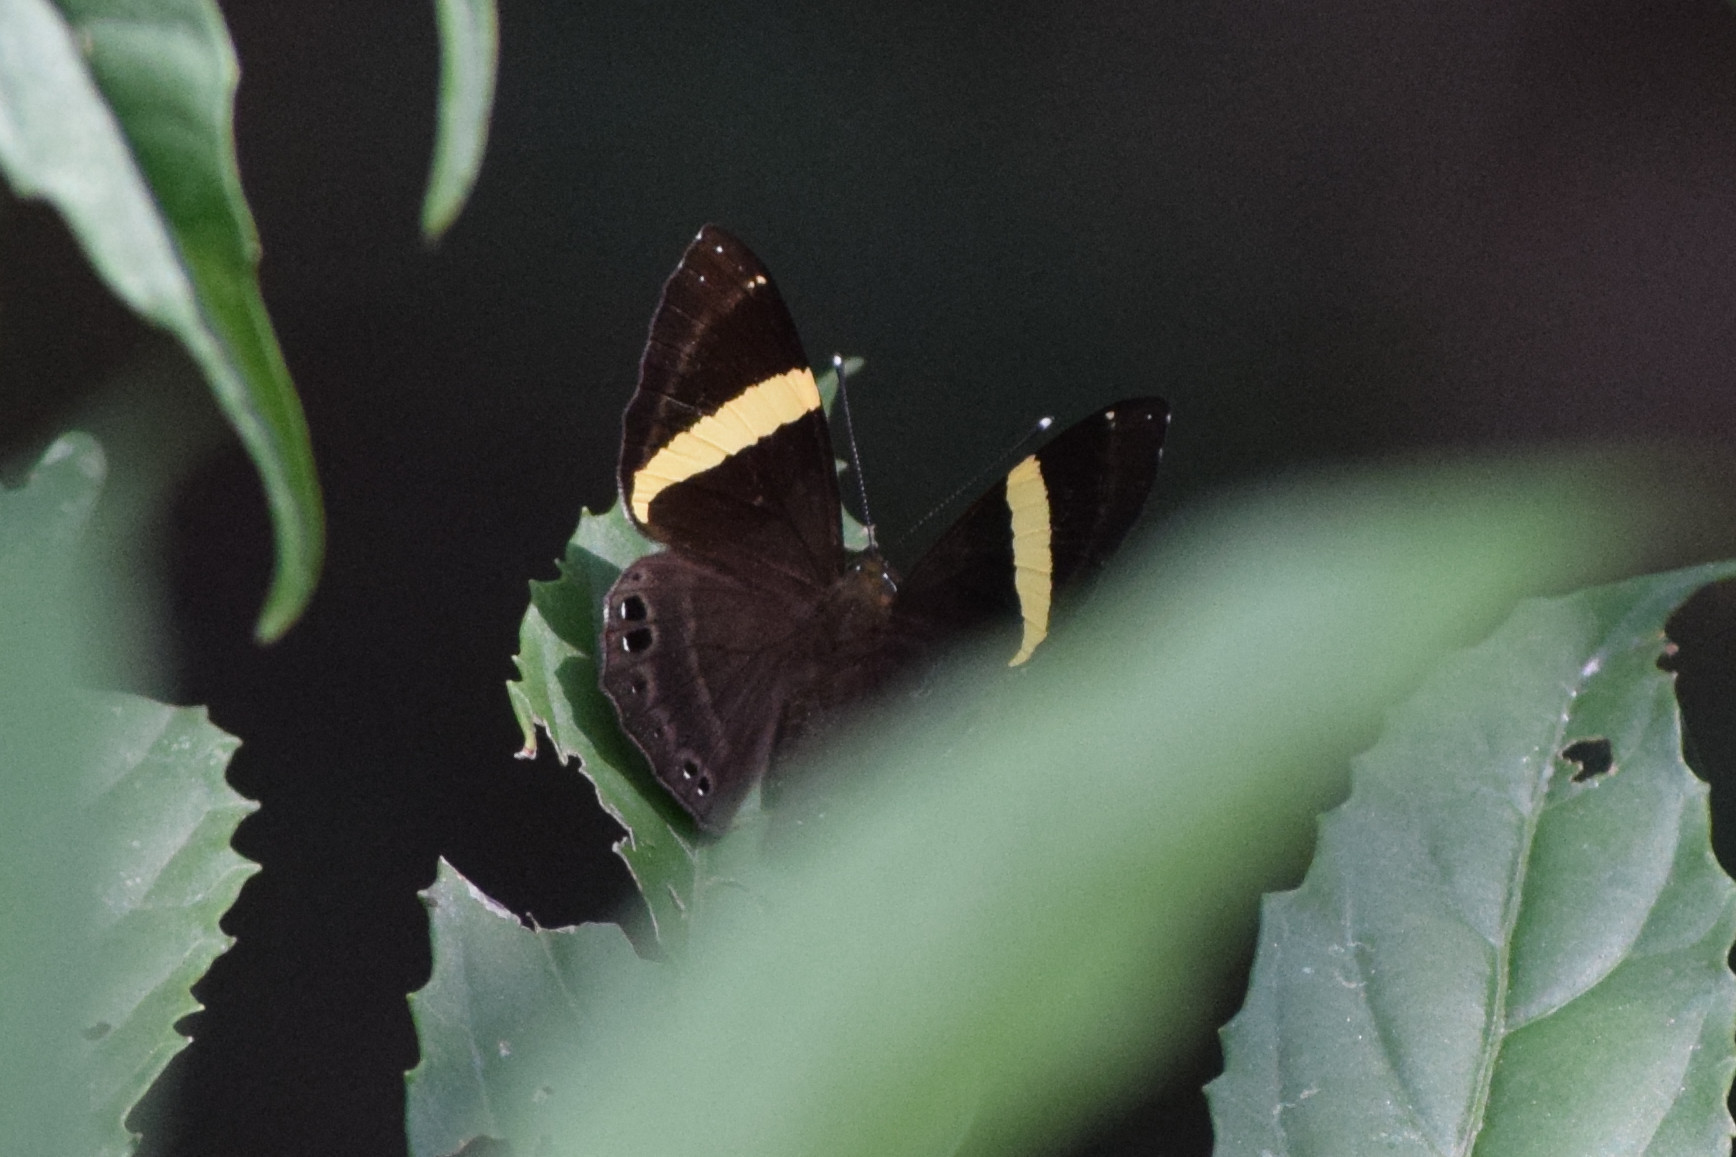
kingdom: Animalia
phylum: Arthropoda
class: Insecta
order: Lepidoptera
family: Lycaenidae
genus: Abisara
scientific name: Abisara fylla
